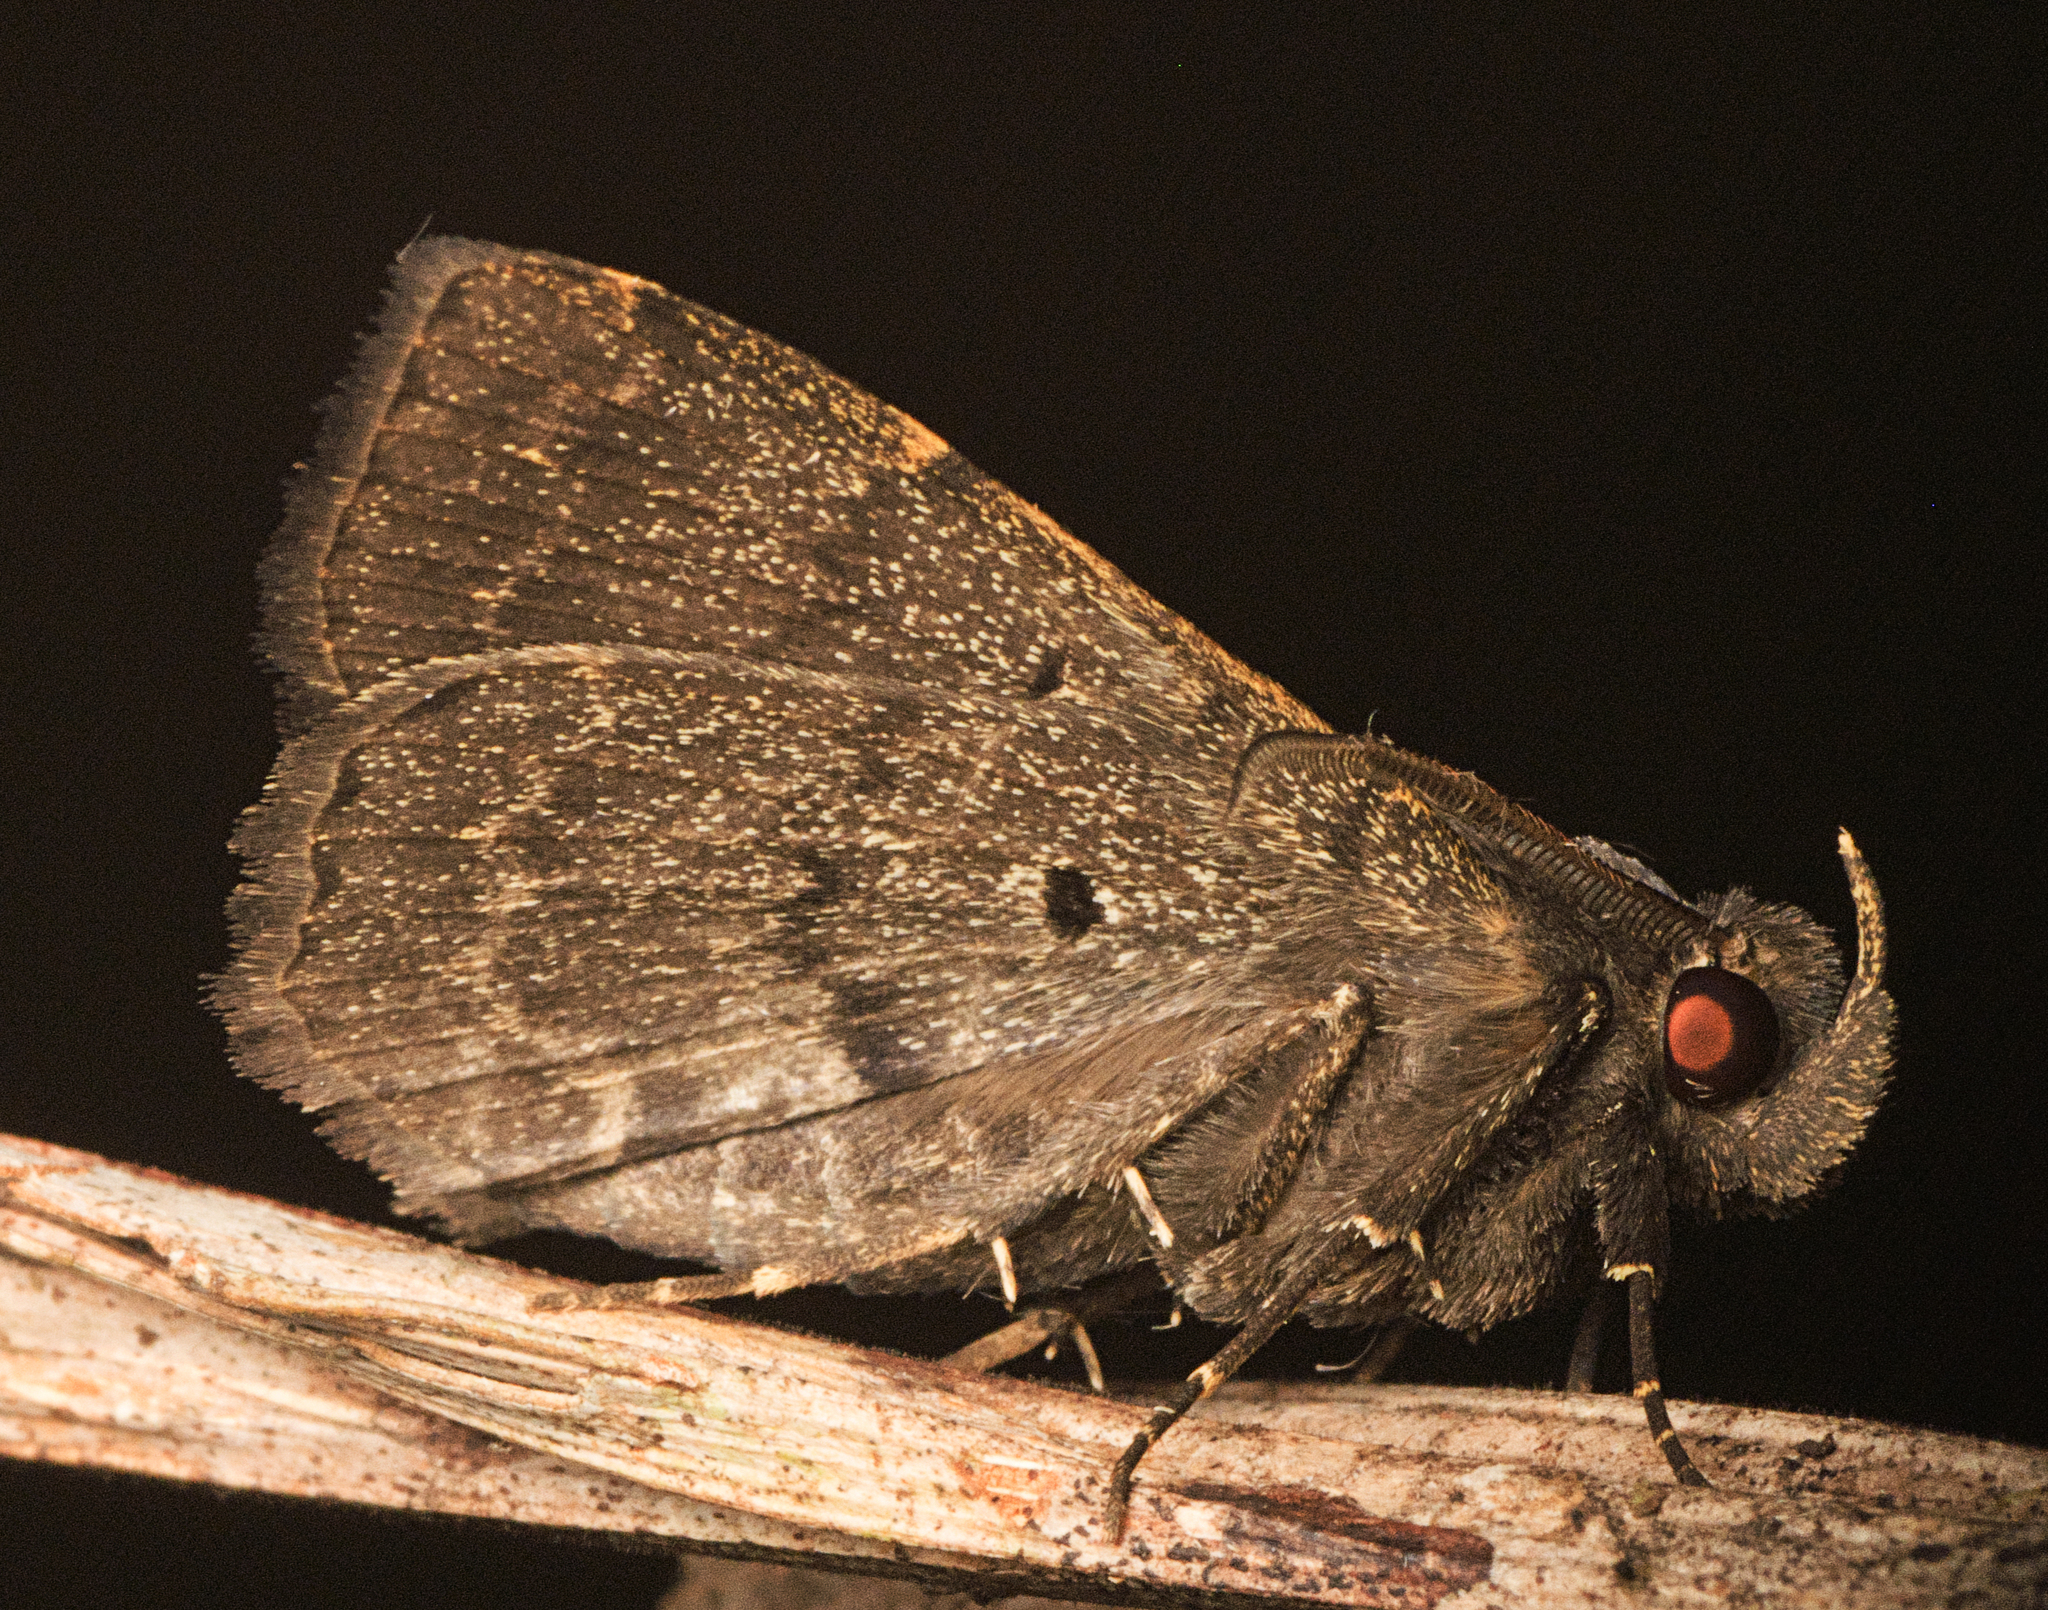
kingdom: Animalia
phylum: Arthropoda
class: Insecta
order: Lepidoptera
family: Erebidae
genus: Bocana
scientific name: Bocana manifestalis
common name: Moth
